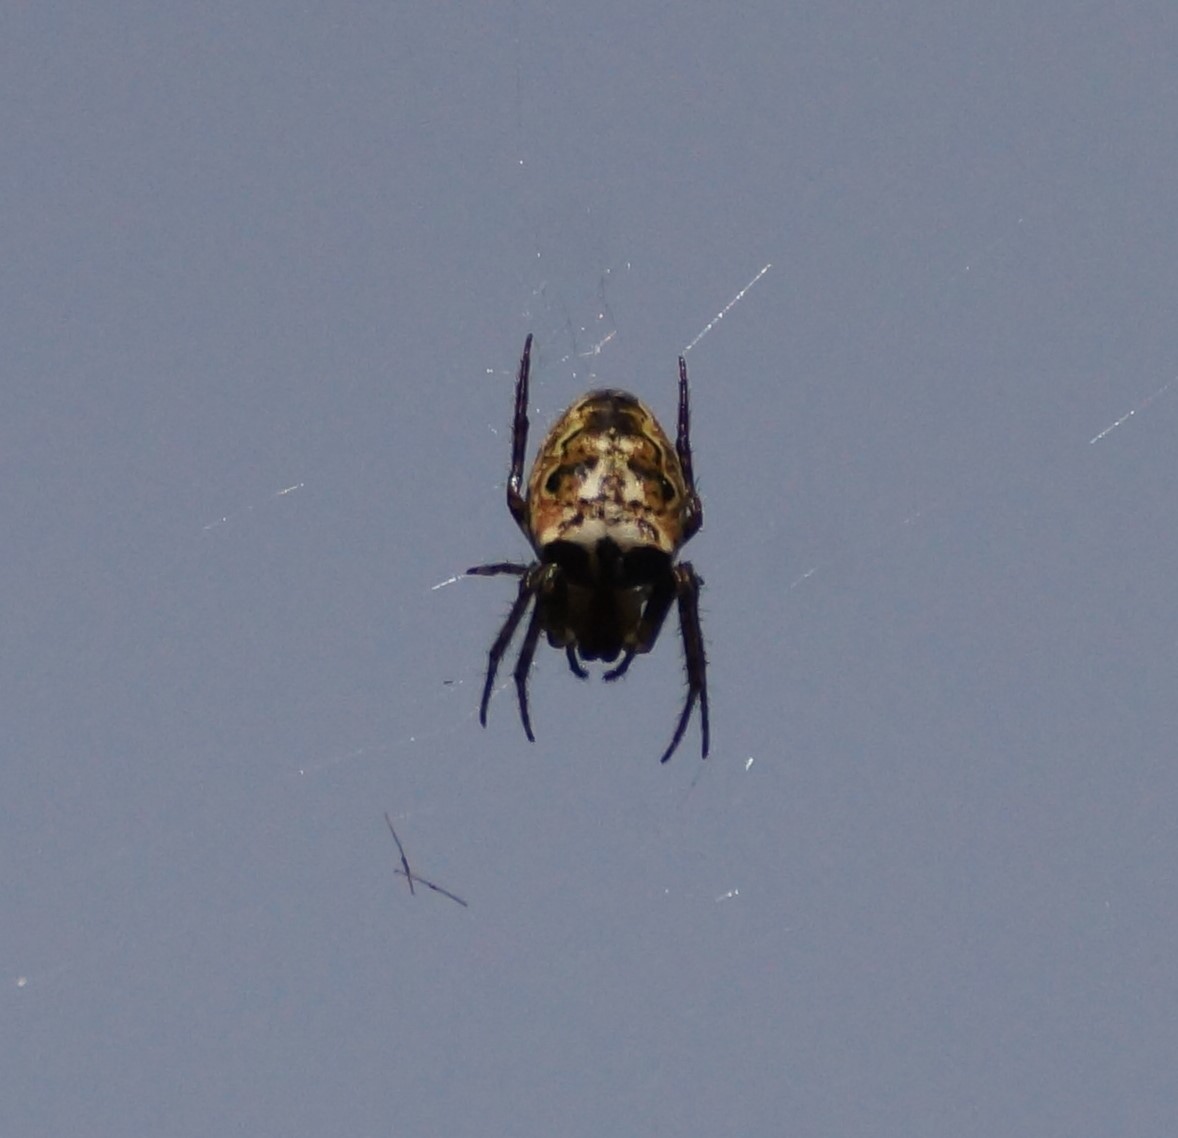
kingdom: Animalia
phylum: Arthropoda
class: Arachnida
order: Araneae
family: Araneidae
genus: Plebs
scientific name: Plebs eburnus
